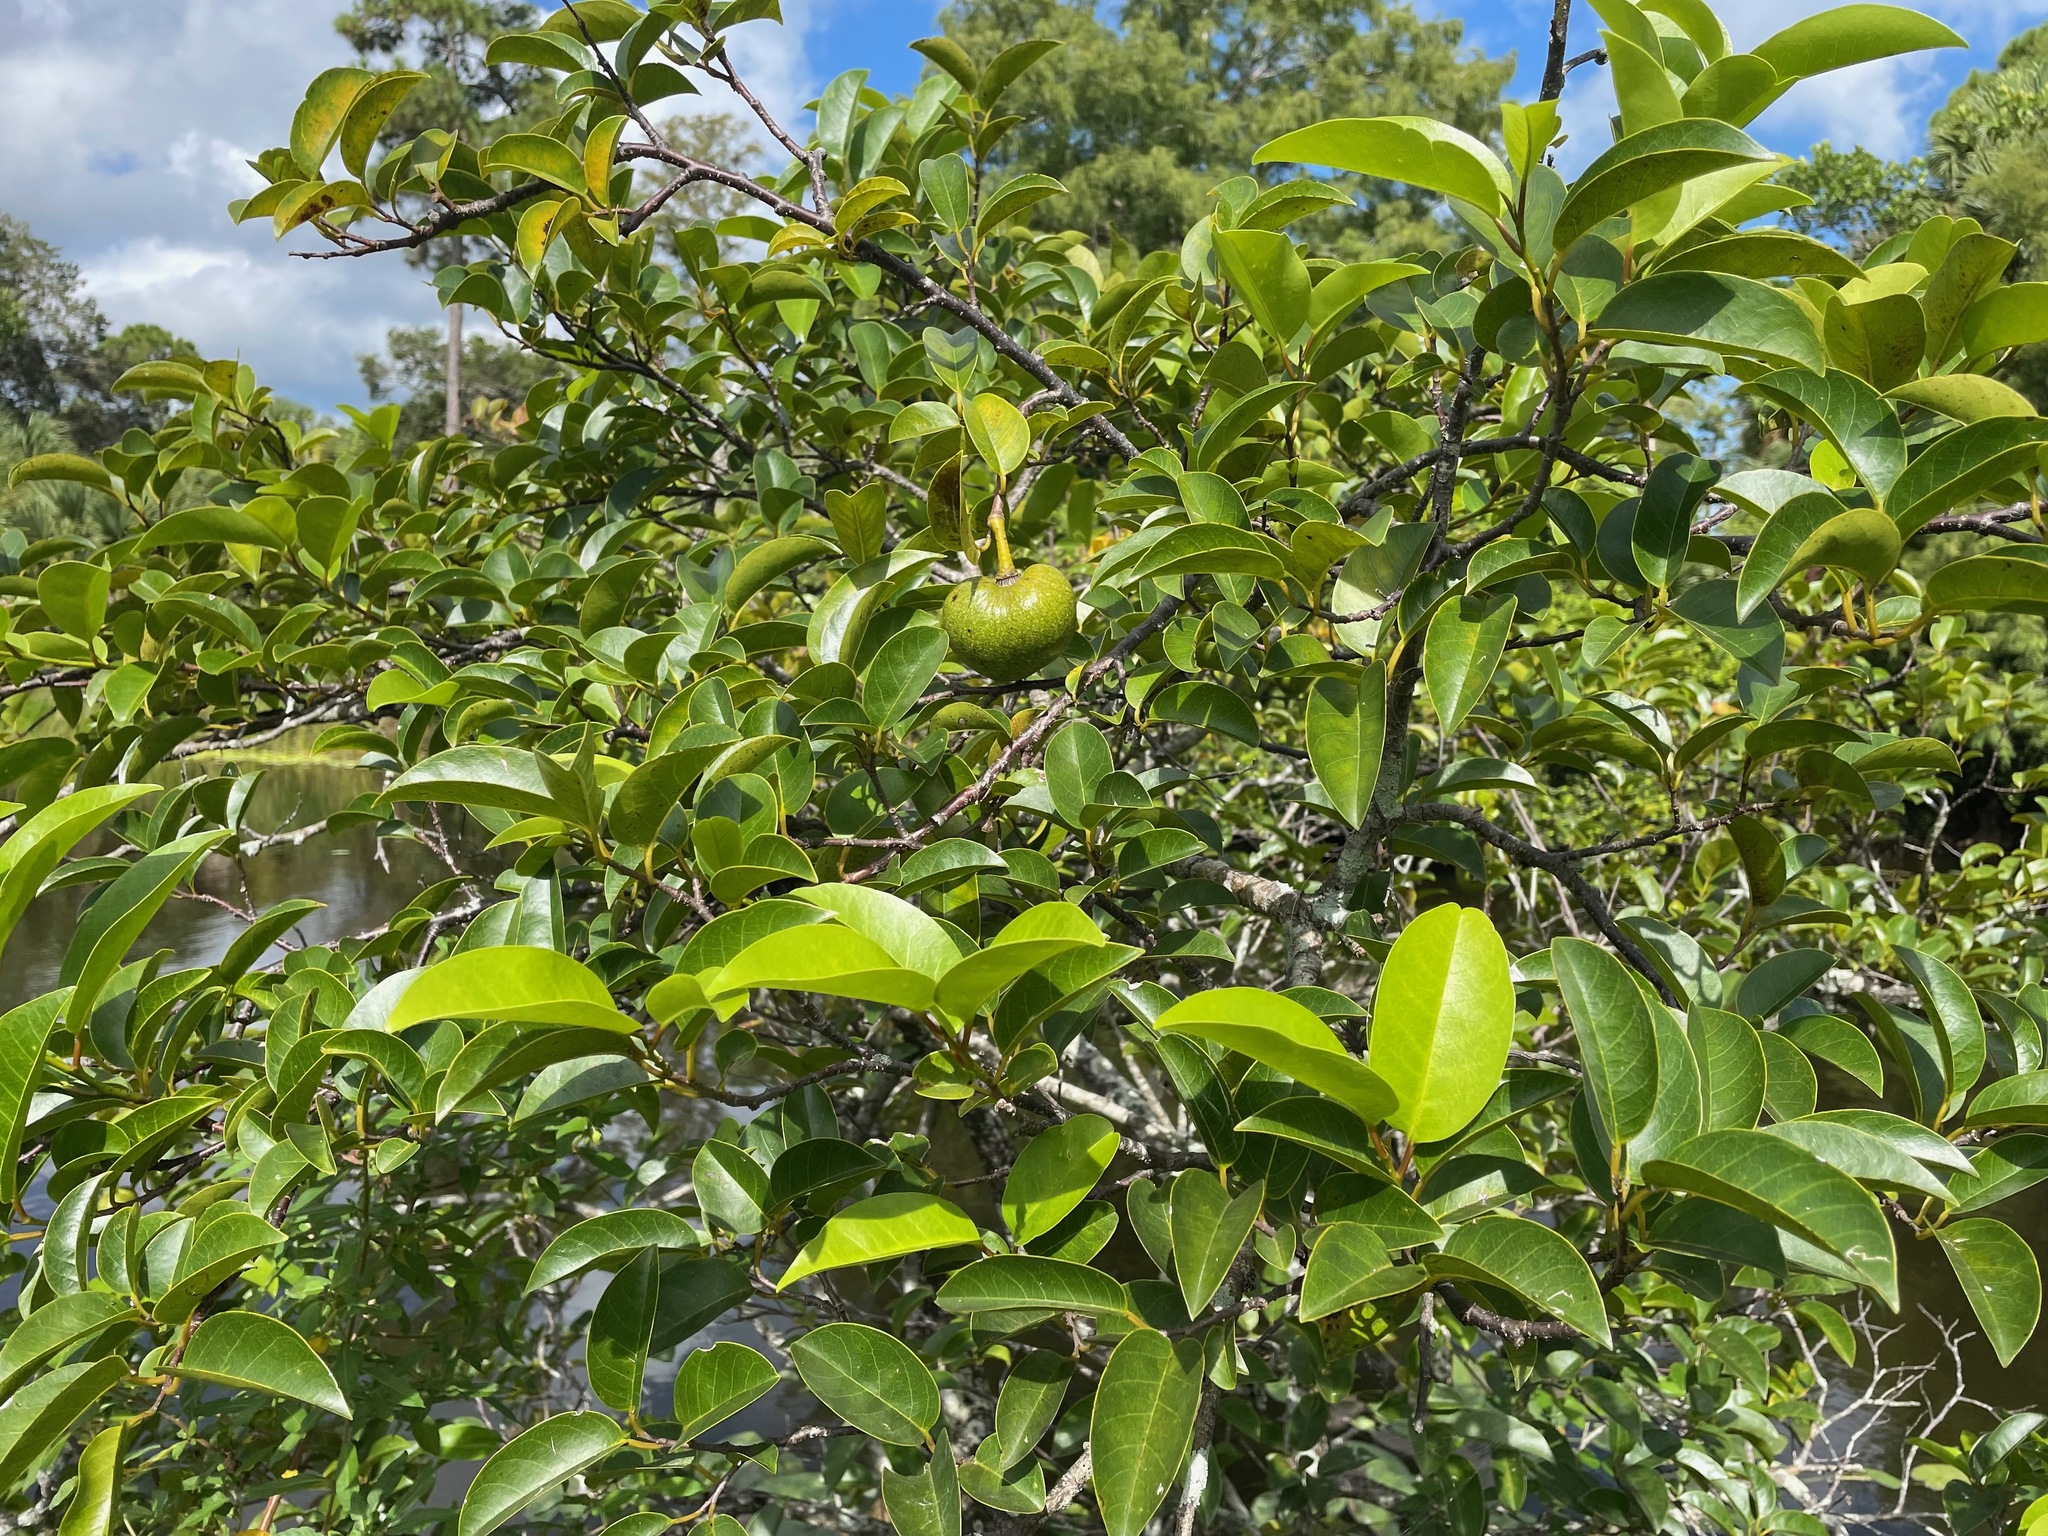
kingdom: Plantae
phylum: Tracheophyta
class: Magnoliopsida
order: Magnoliales
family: Annonaceae
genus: Annona
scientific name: Annona glabra
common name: Monkey apple
